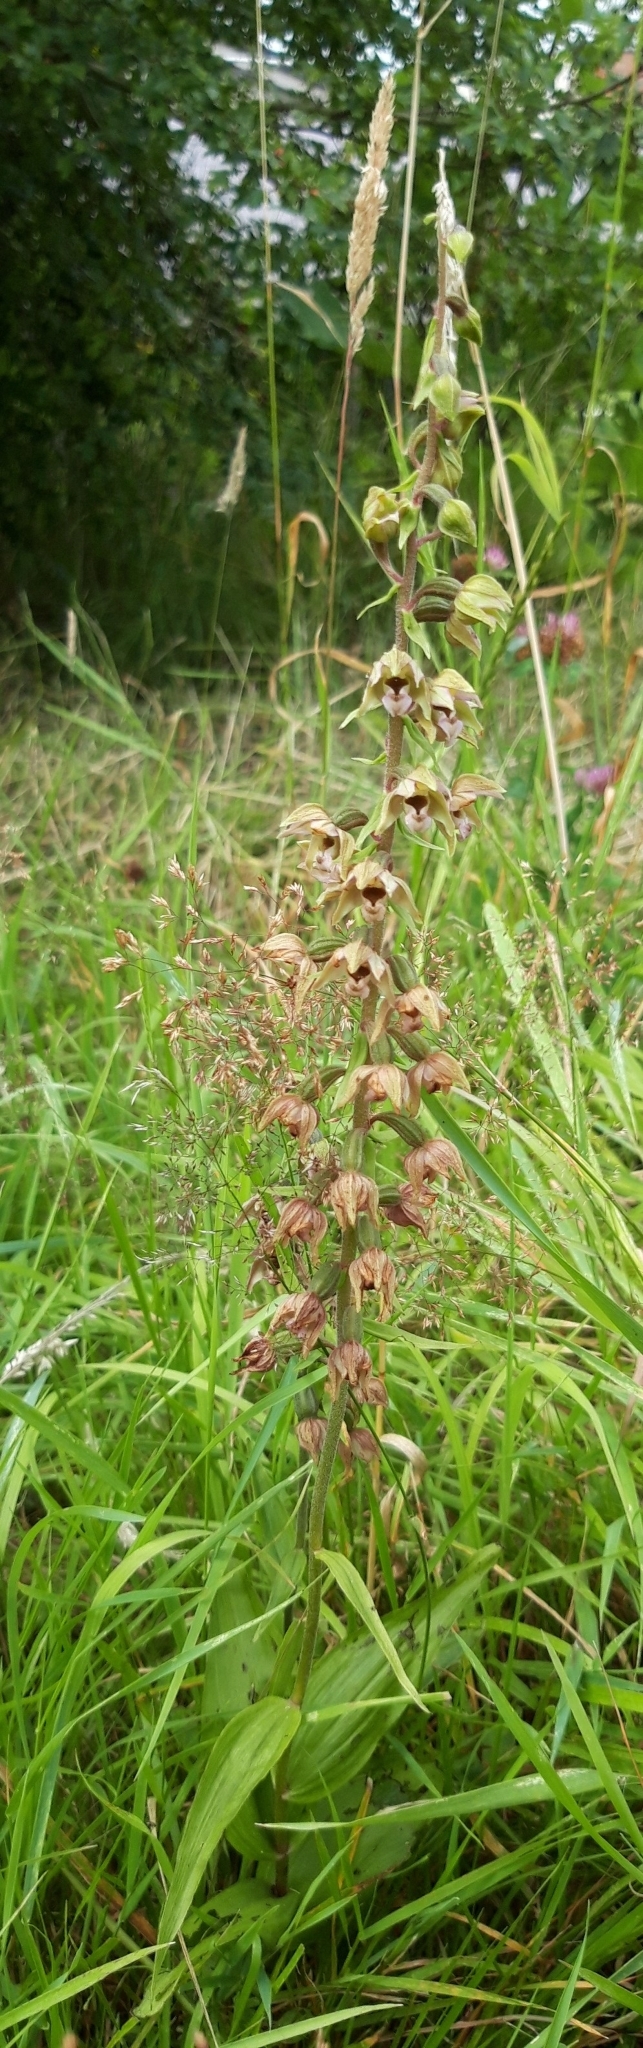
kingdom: Plantae
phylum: Tracheophyta
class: Liliopsida
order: Asparagales
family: Orchidaceae
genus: Epipactis
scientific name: Epipactis helleborine
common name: Broad-leaved helleborine
